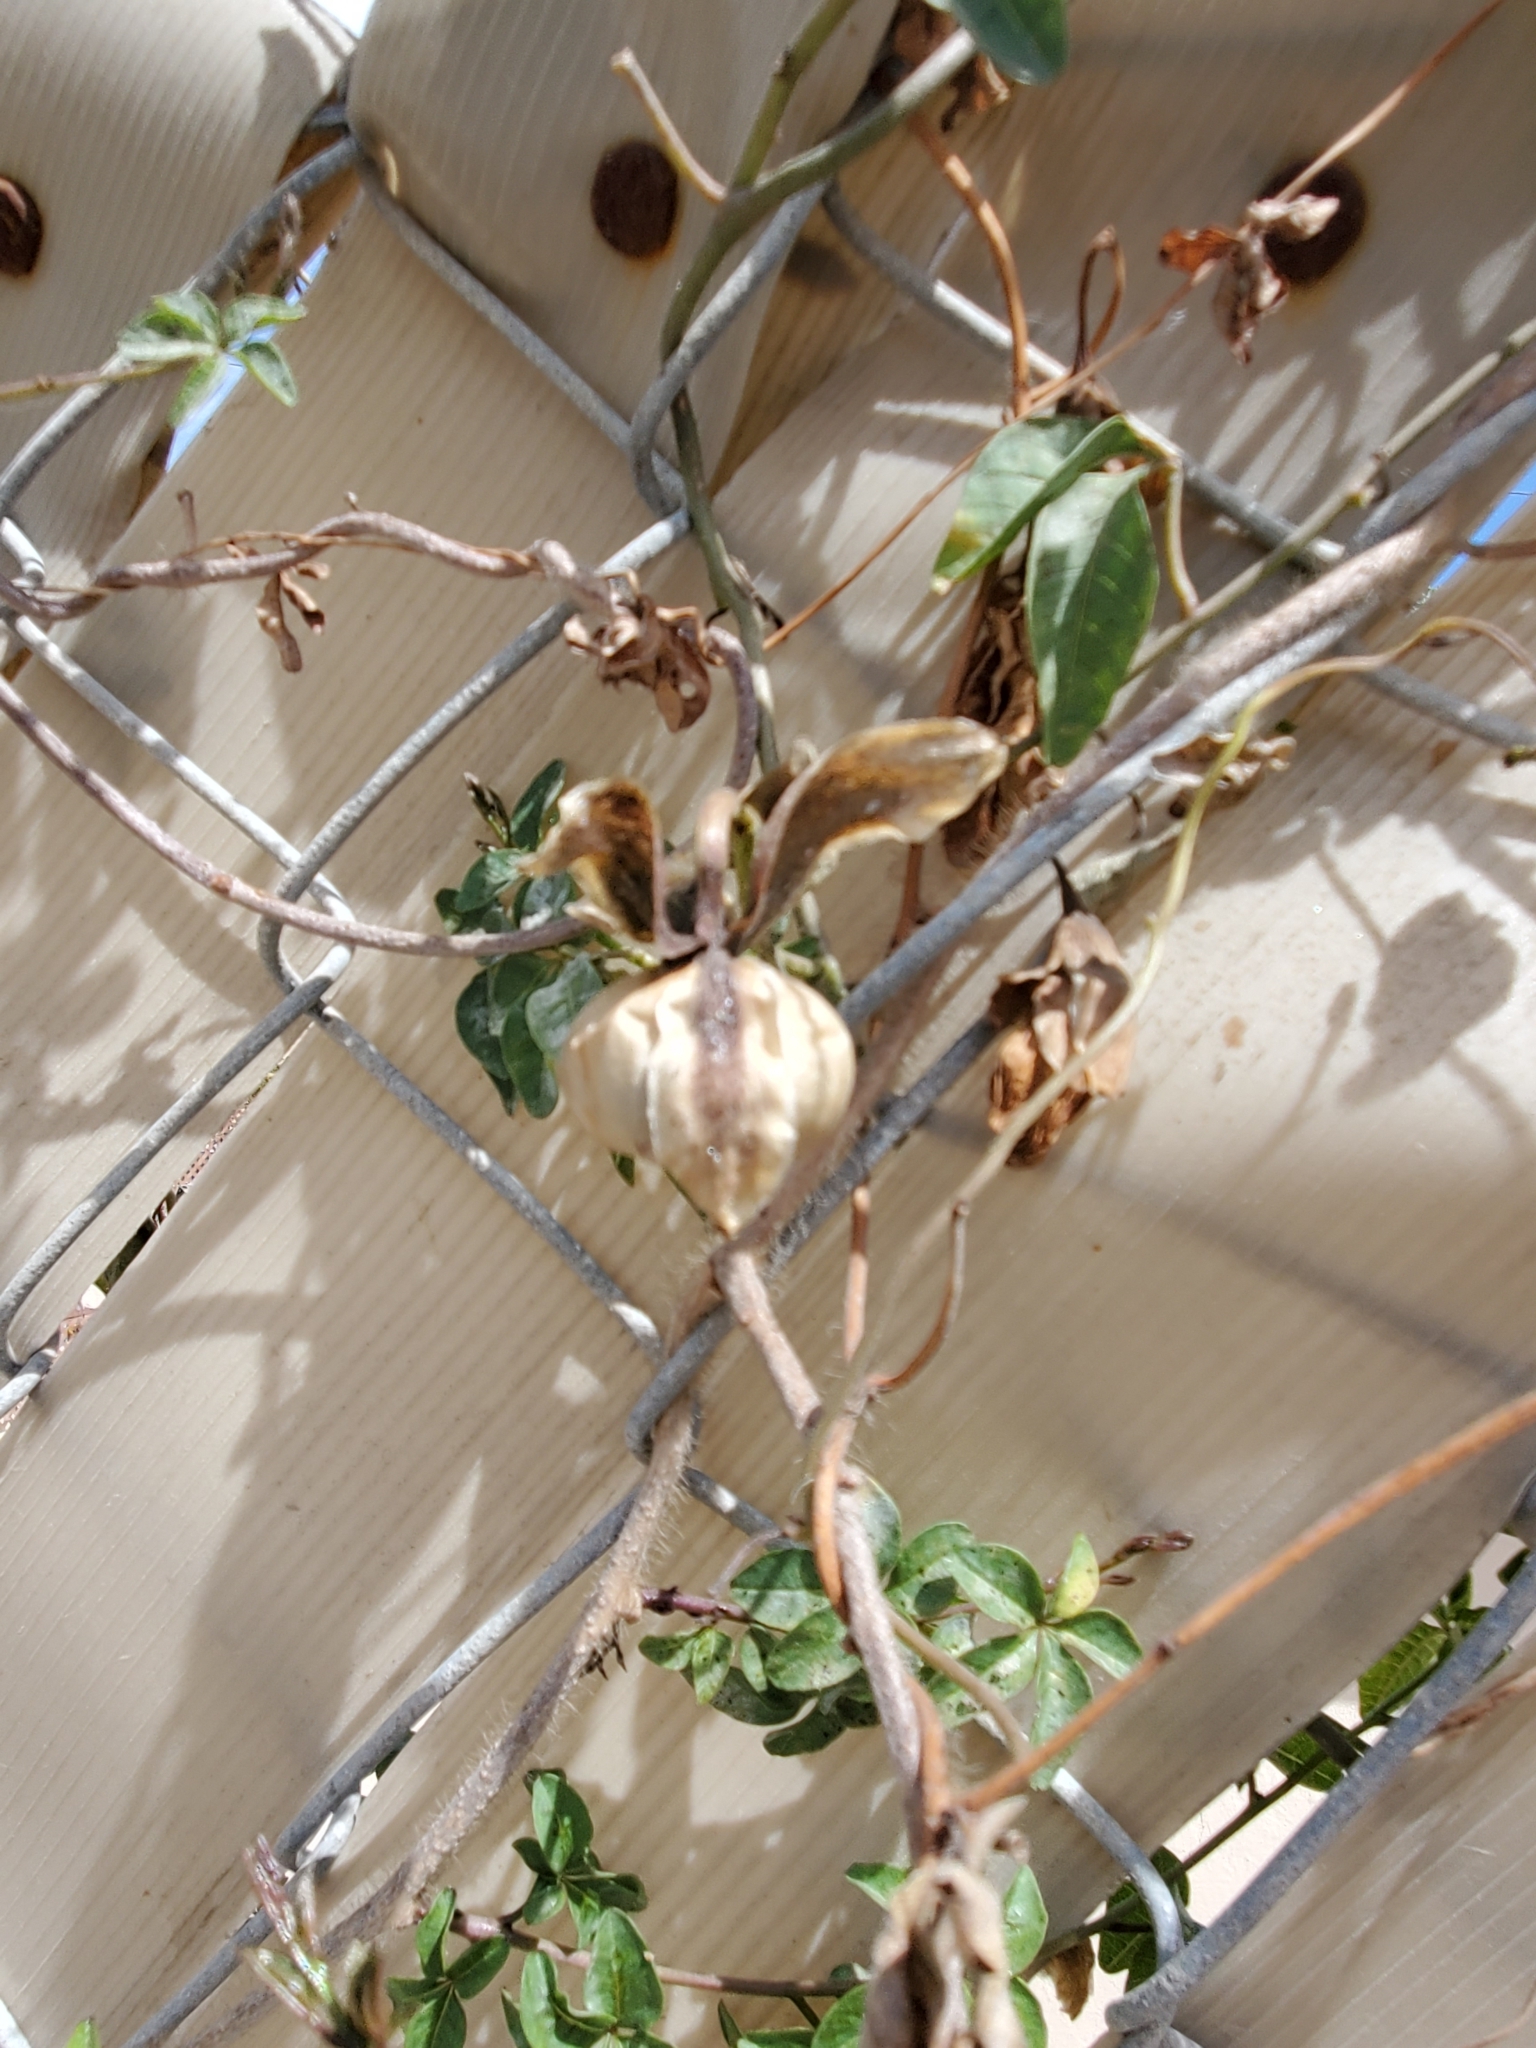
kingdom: Plantae
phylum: Tracheophyta
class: Magnoliopsida
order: Solanales
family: Convolvulaceae
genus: Distimake
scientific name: Distimake aureus
